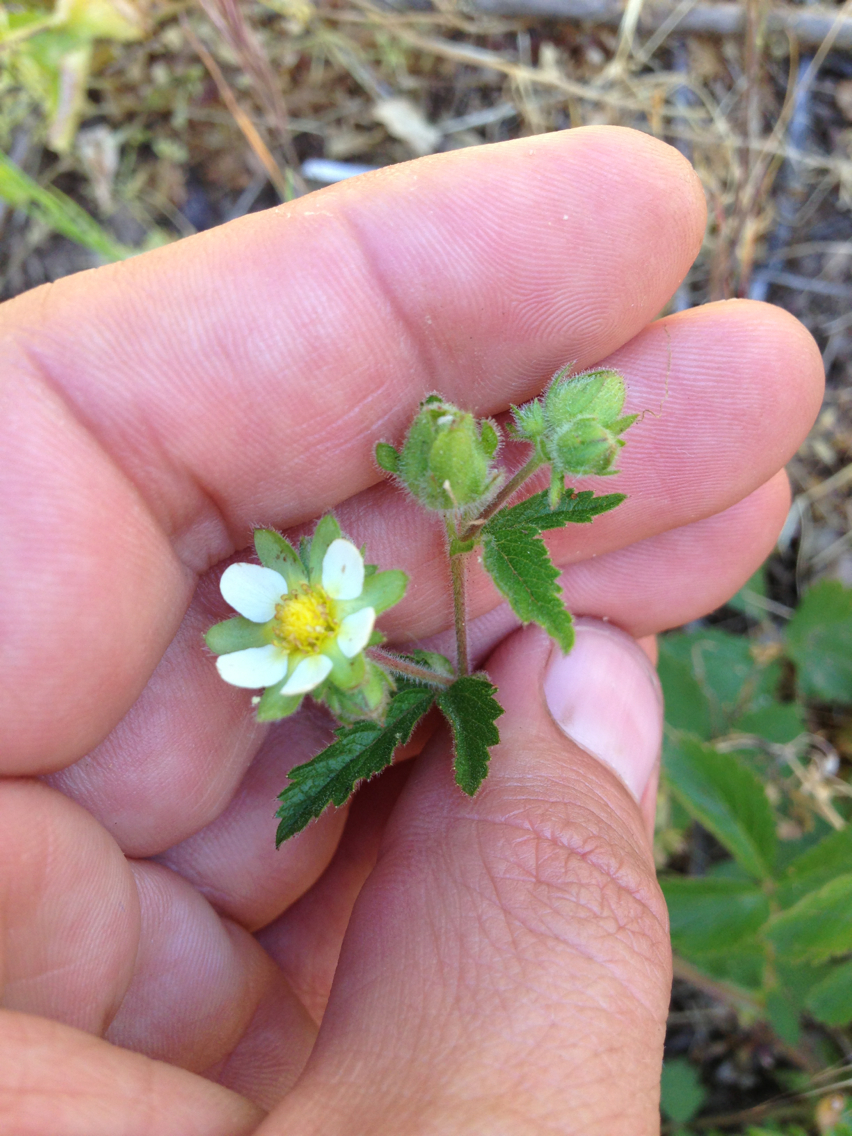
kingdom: Plantae
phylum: Tracheophyta
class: Magnoliopsida
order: Rosales
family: Rosaceae
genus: Drymocallis
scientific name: Drymocallis glandulosa
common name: Sticky cinquefoil
